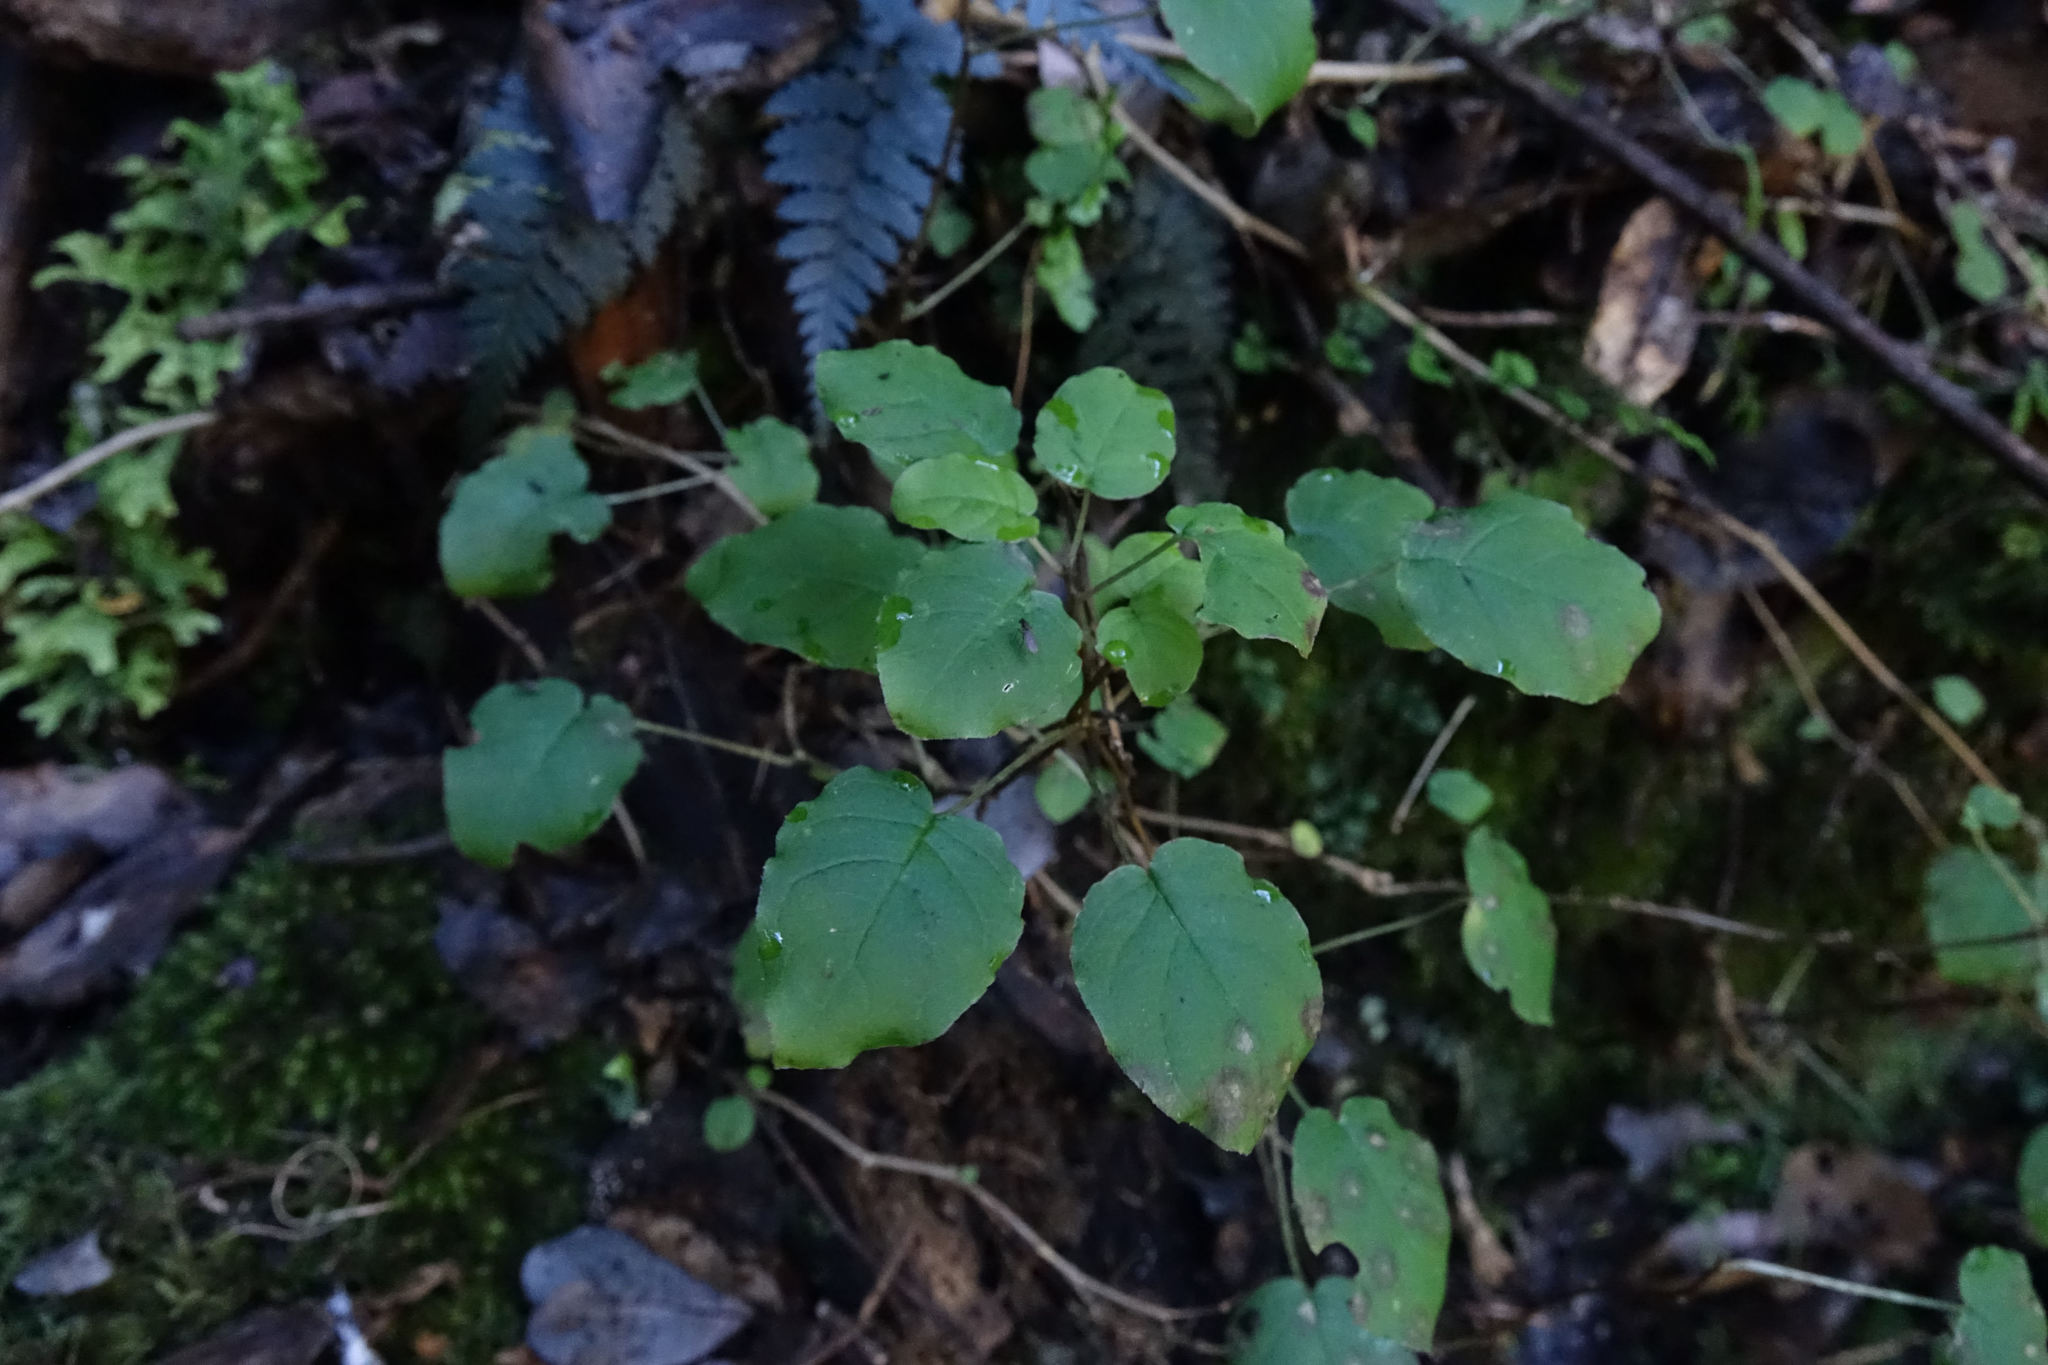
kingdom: Plantae
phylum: Tracheophyta
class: Magnoliopsida
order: Myrtales
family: Onagraceae
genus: Fuchsia
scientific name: Fuchsia perscandens
